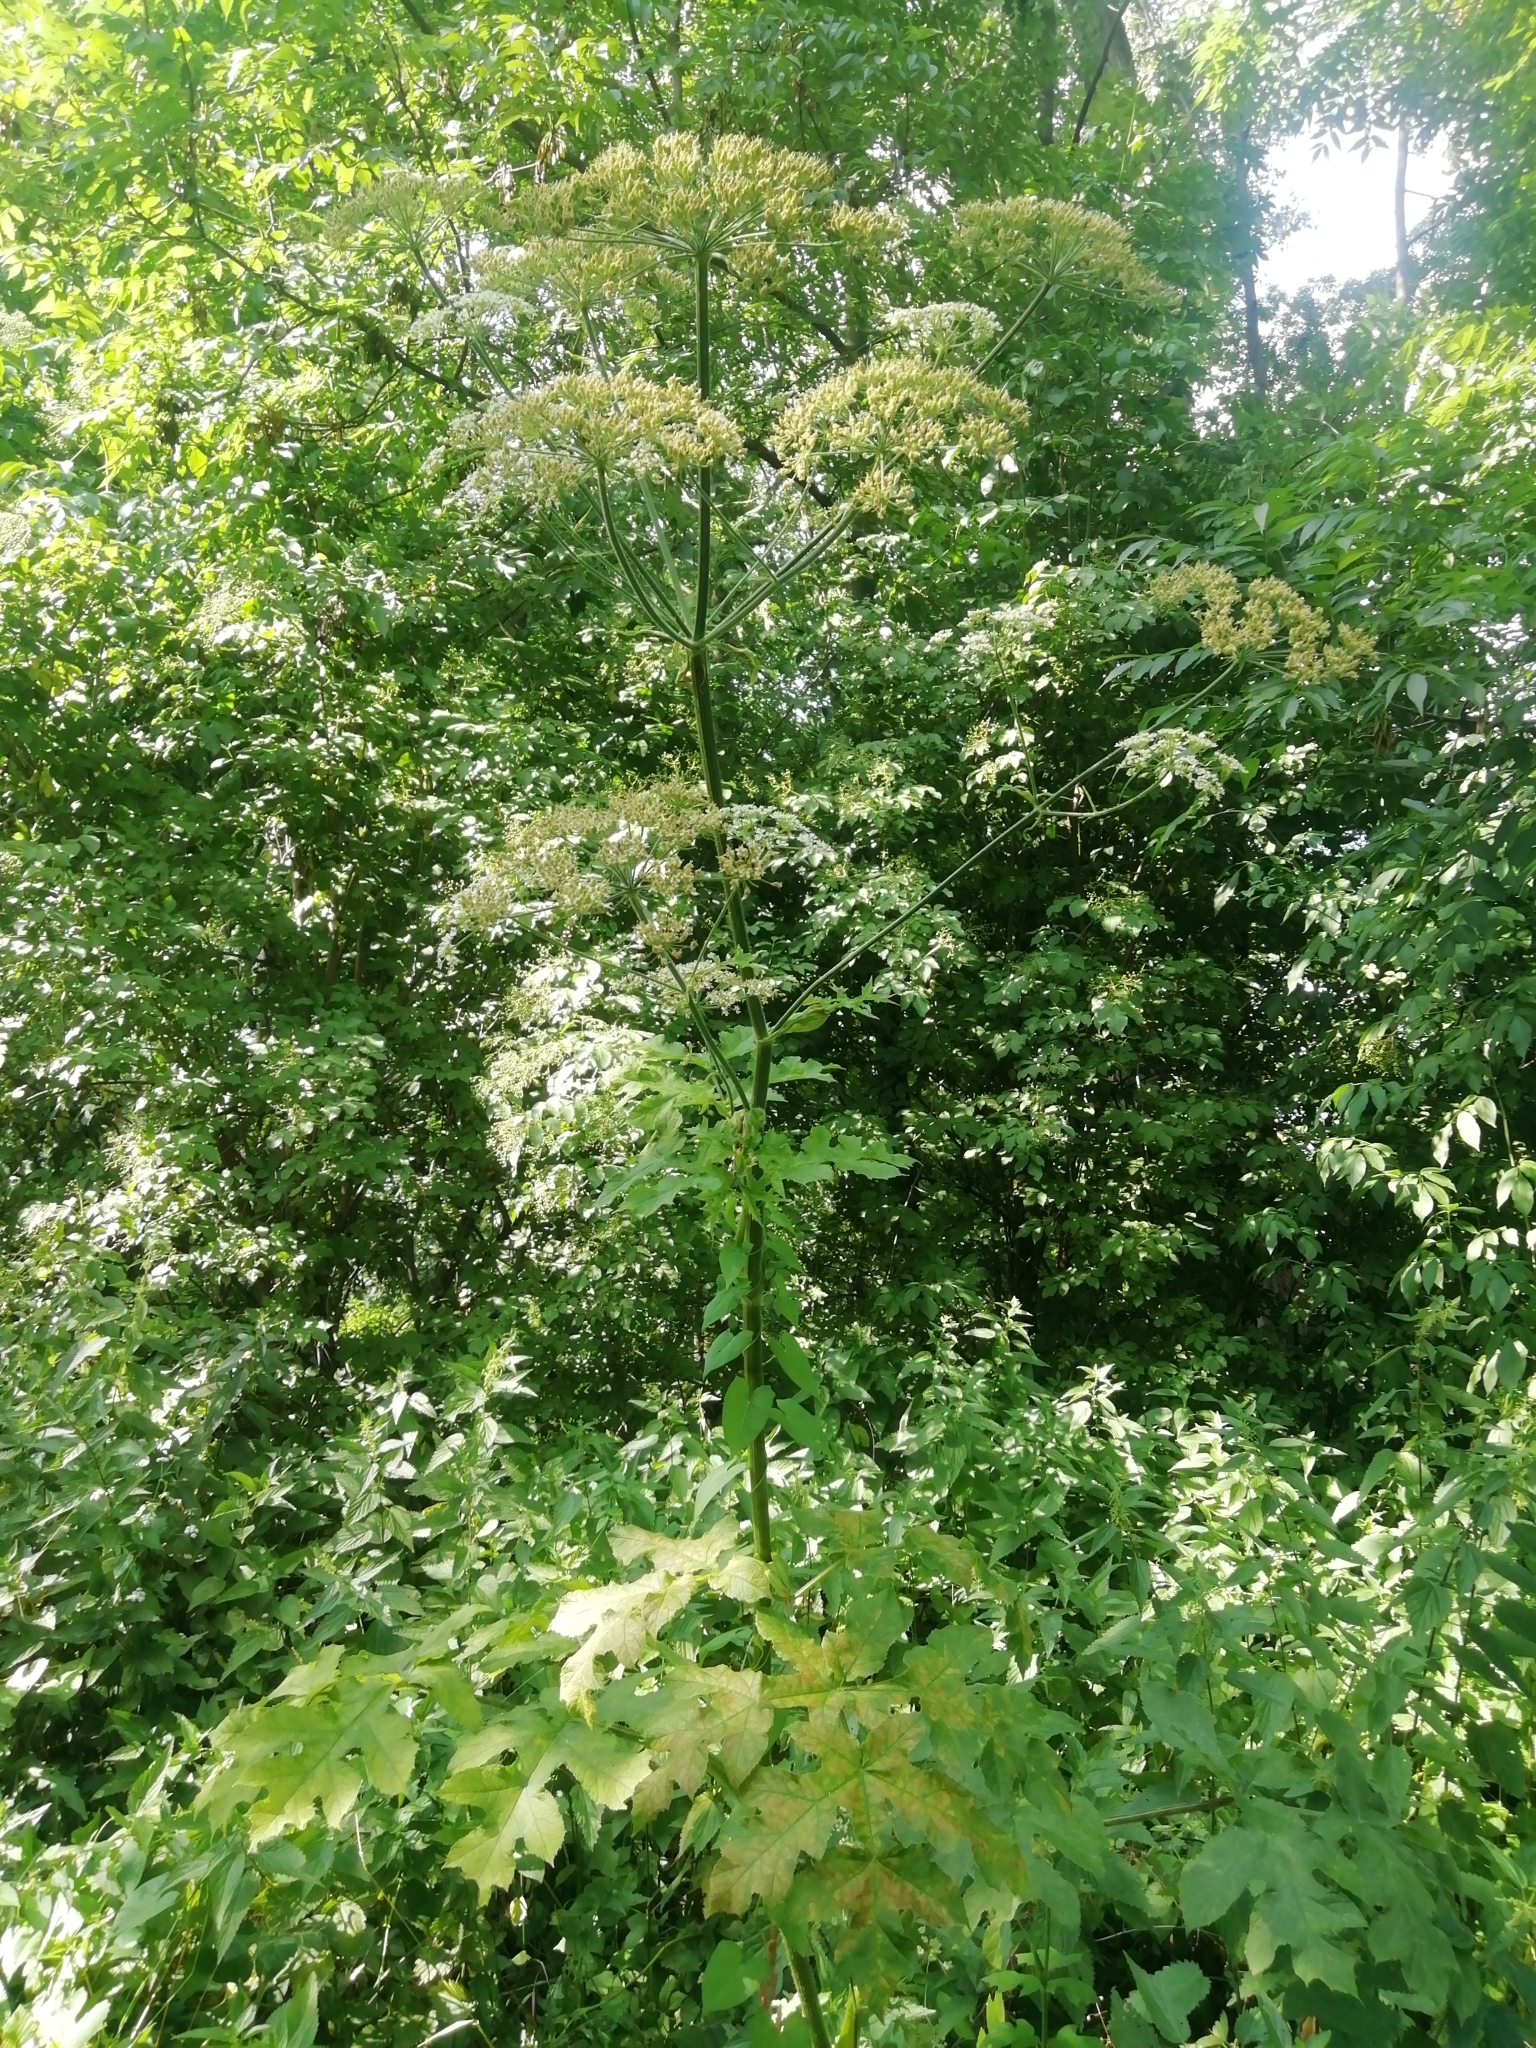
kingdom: Plantae
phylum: Tracheophyta
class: Magnoliopsida
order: Apiales
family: Apiaceae
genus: Heracleum
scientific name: Heracleum sphondylium
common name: Hogweed
